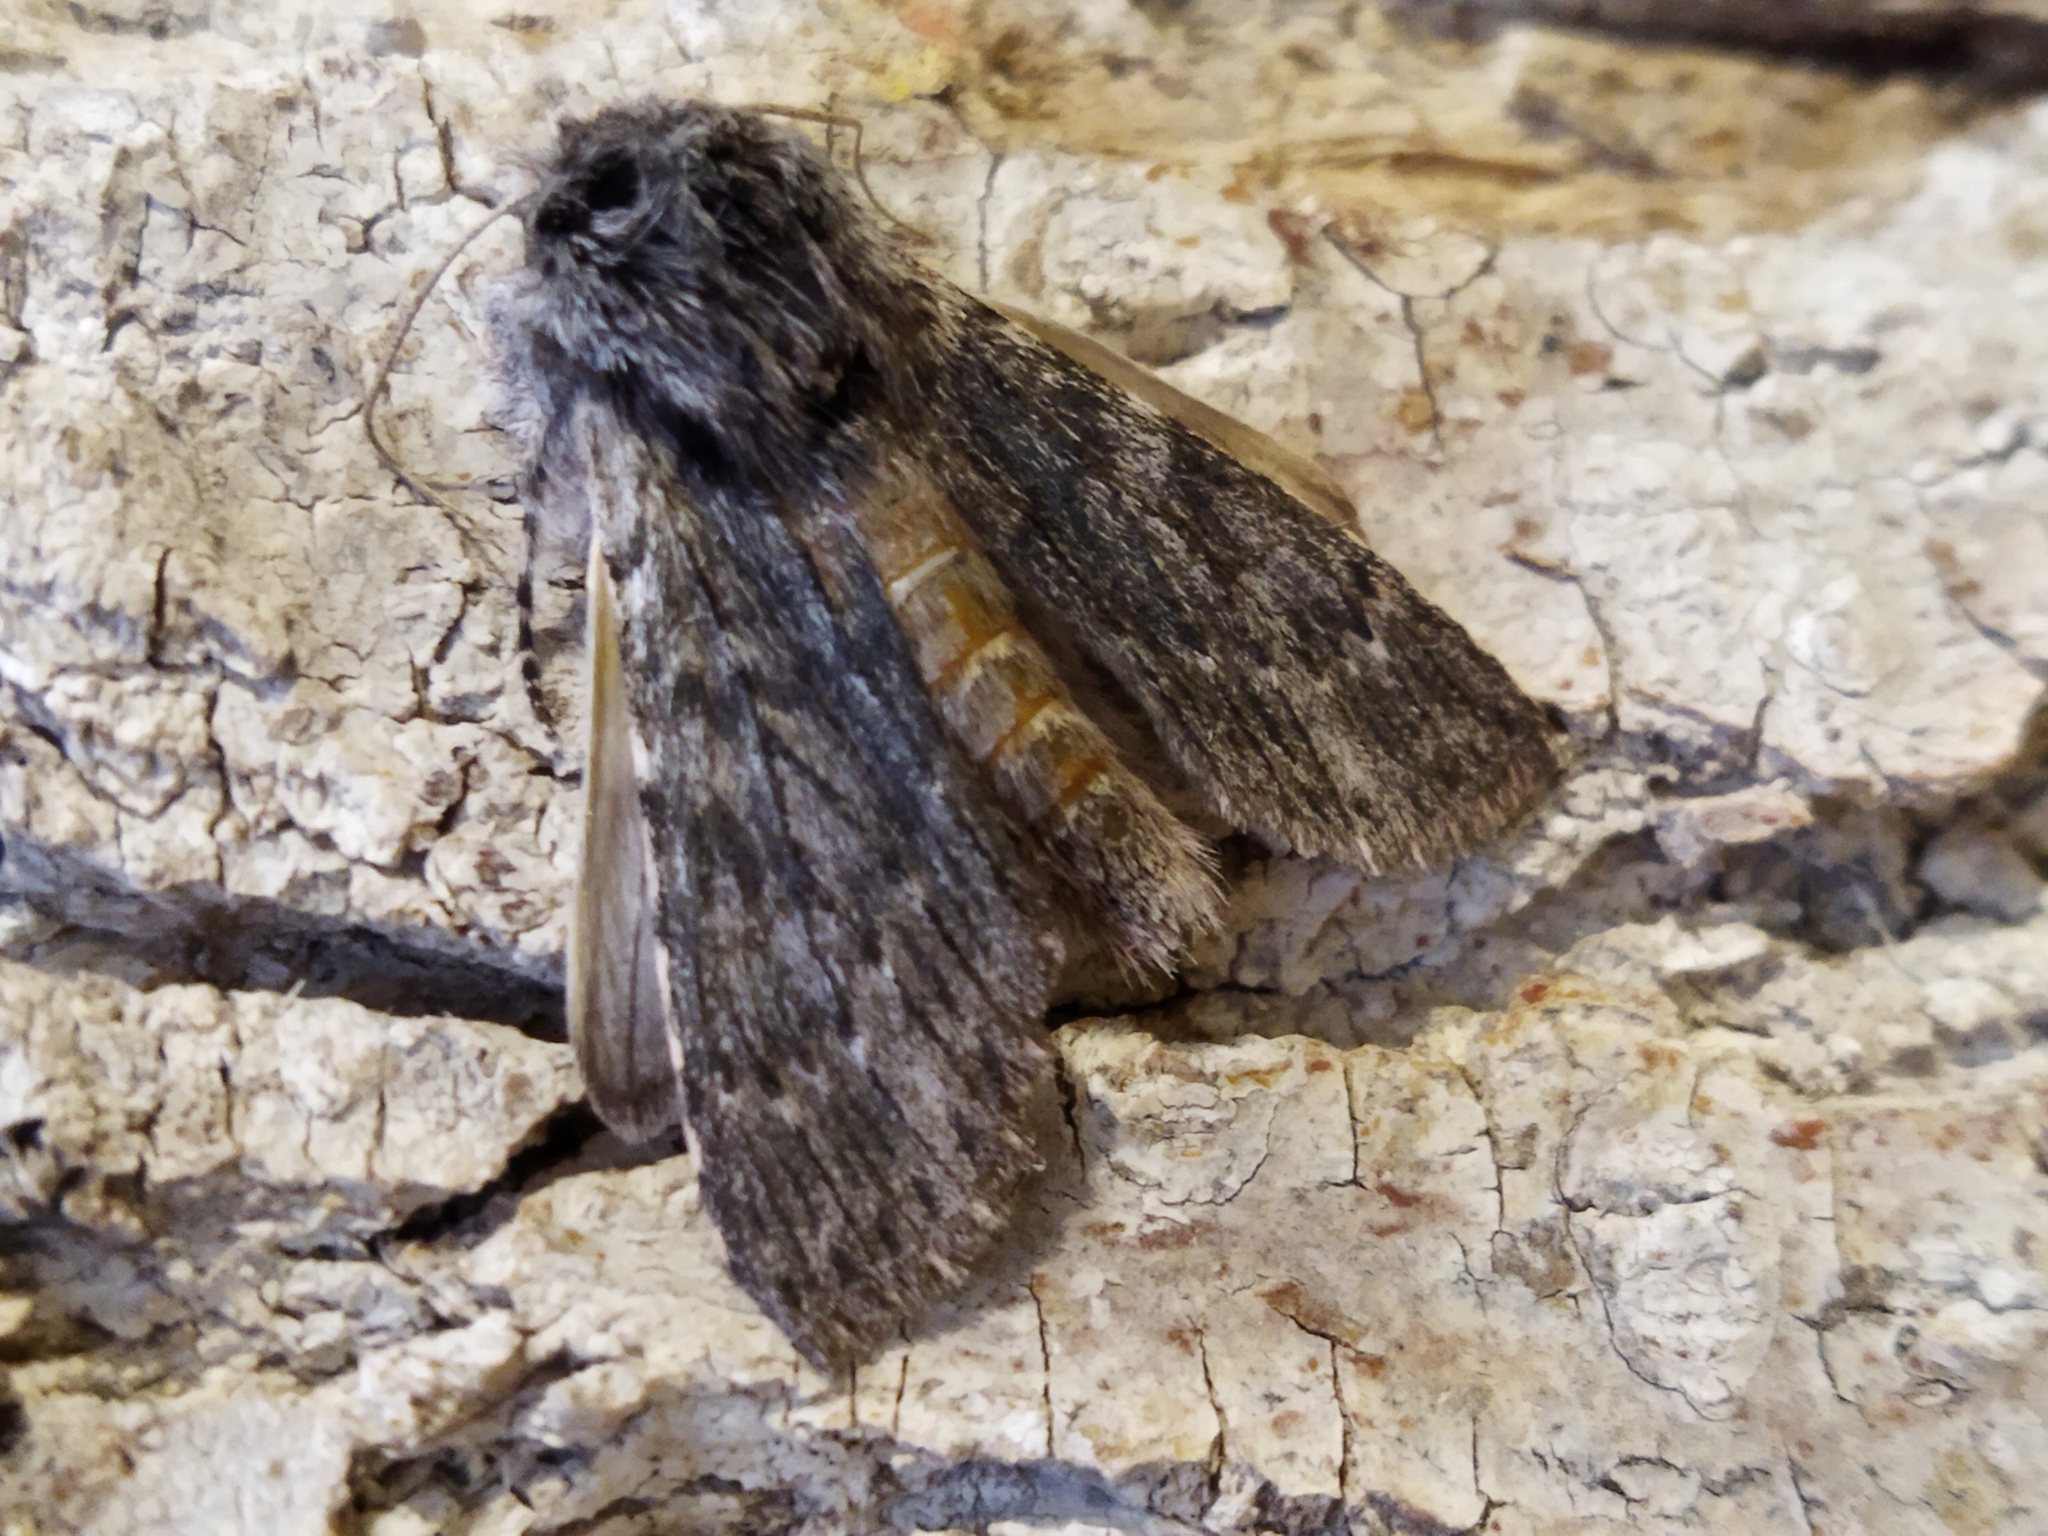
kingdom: Animalia
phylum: Arthropoda
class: Insecta
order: Lepidoptera
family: Notodontidae
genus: Dicranura
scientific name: Dicranura ulmi
